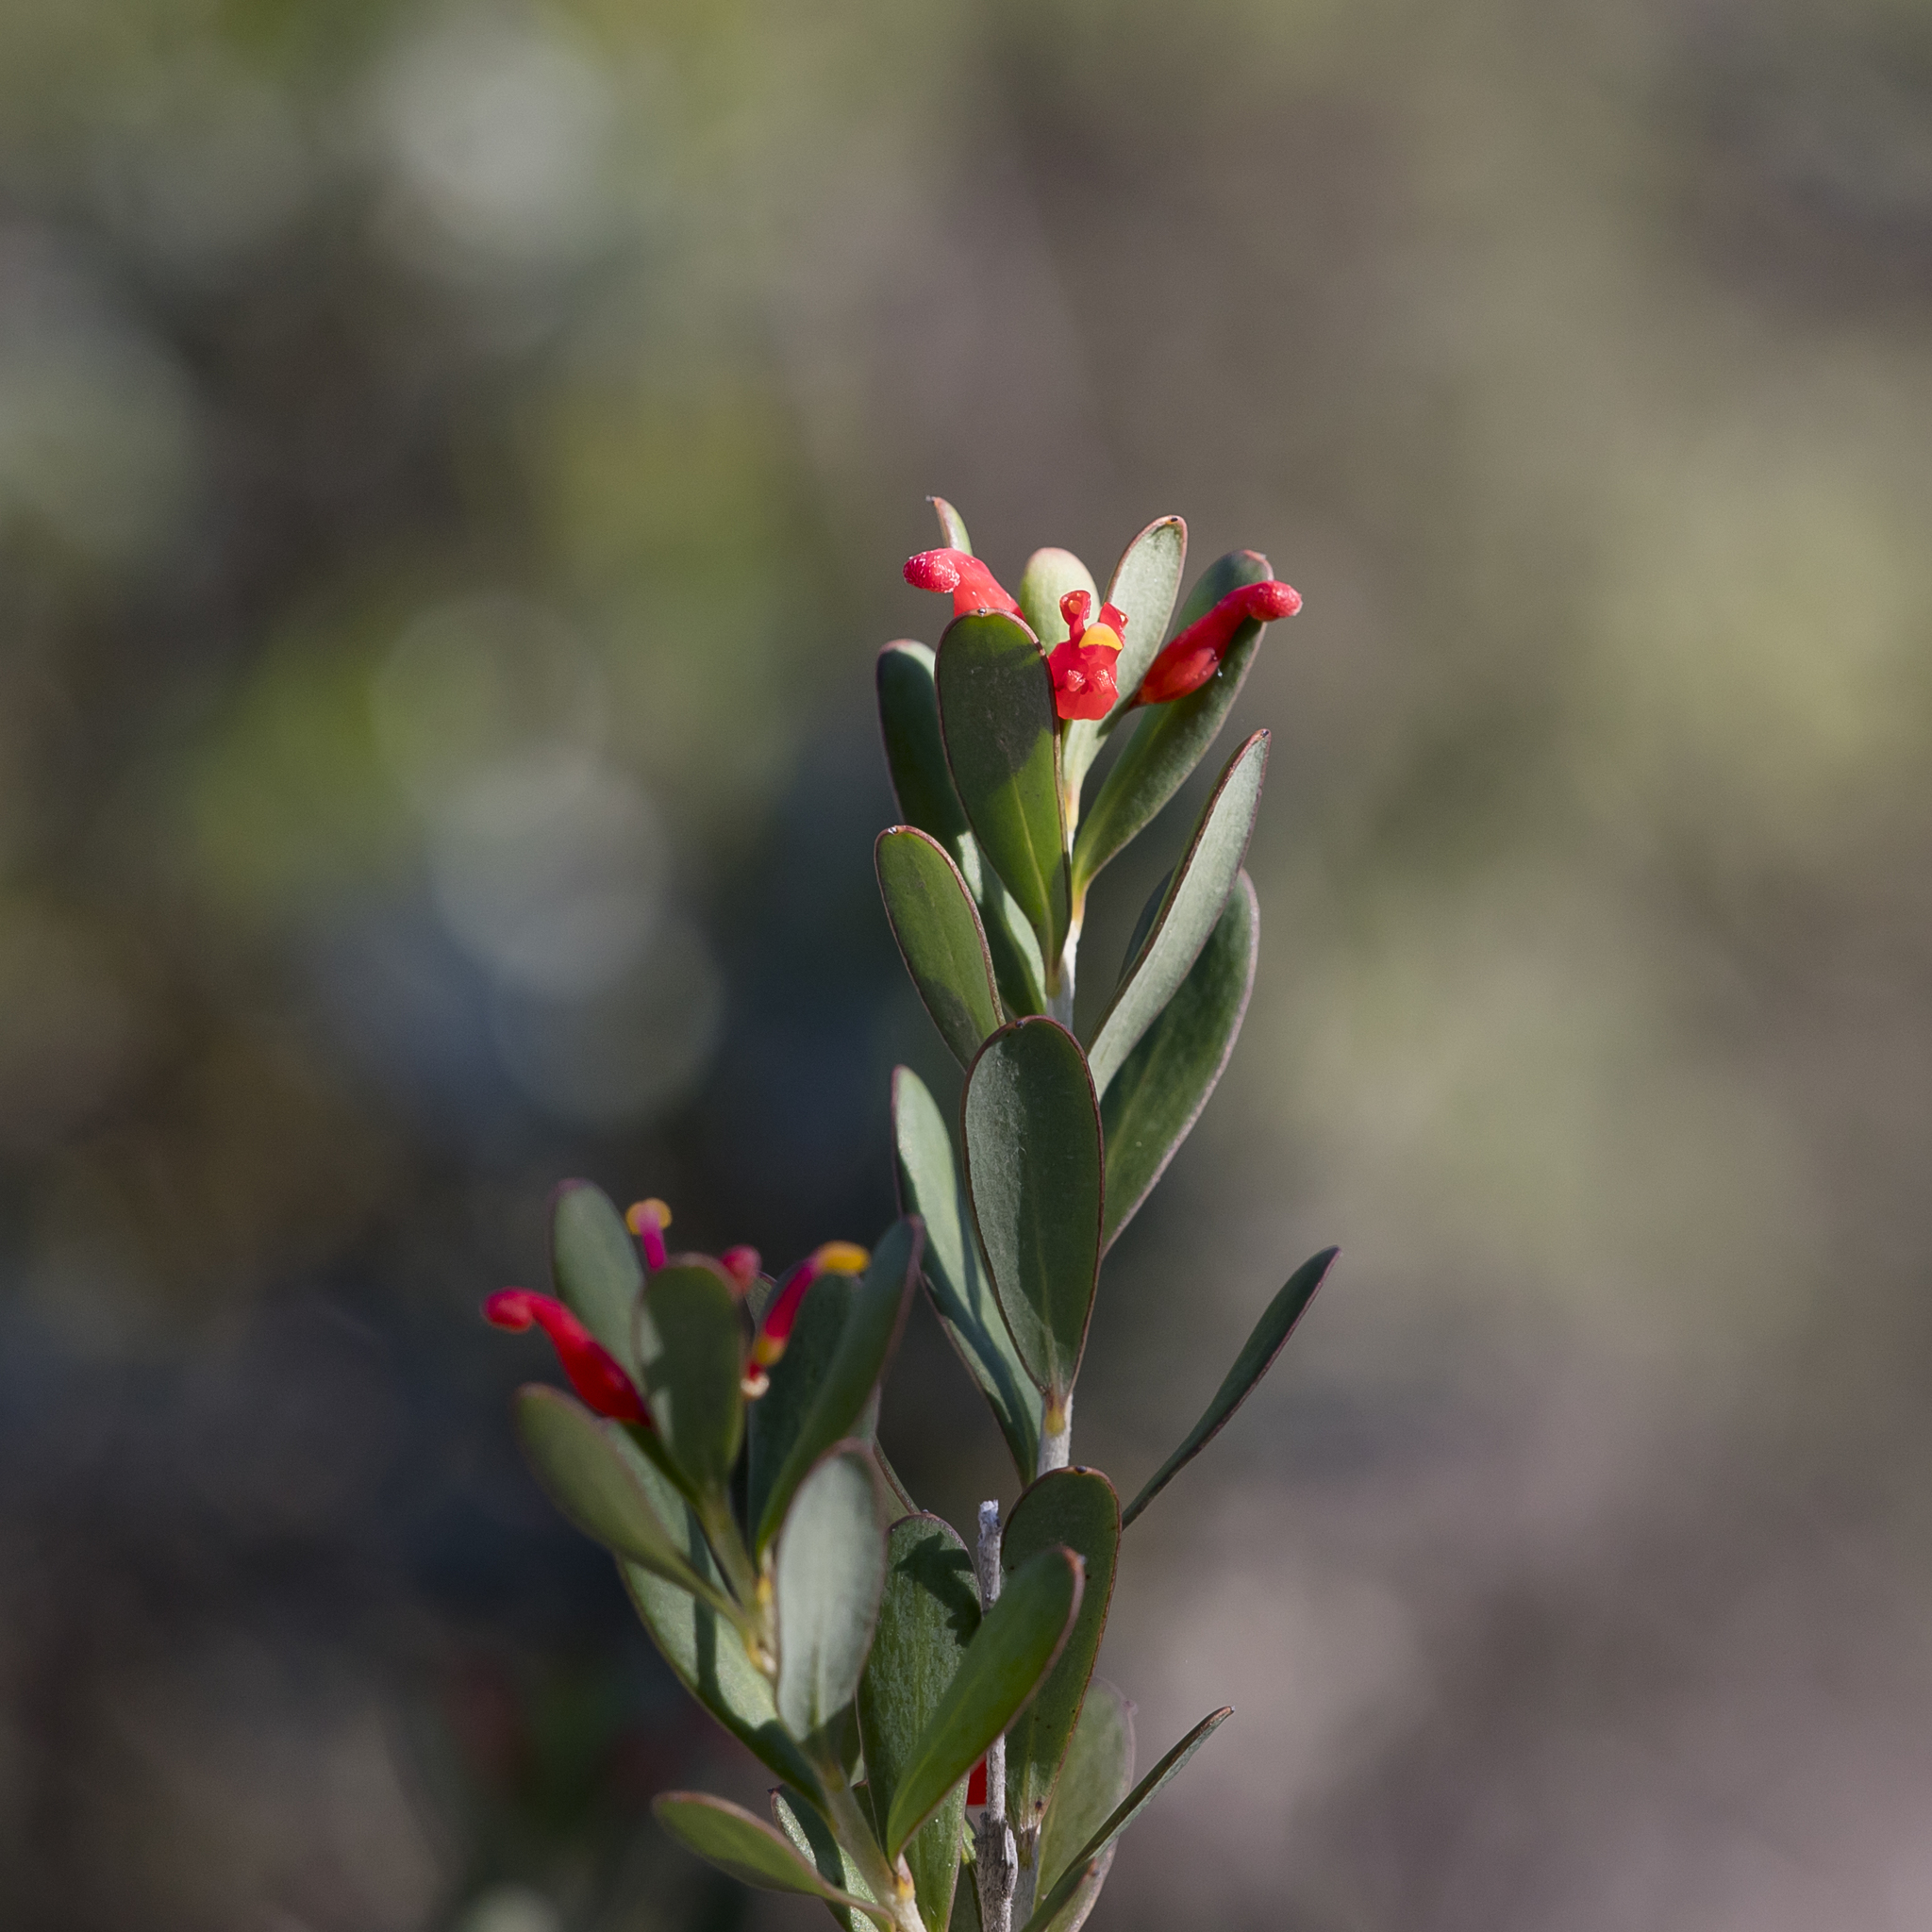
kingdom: Plantae
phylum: Tracheophyta
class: Magnoliopsida
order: Proteales
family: Proteaceae
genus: Grevillea
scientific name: Grevillea pauciflora
